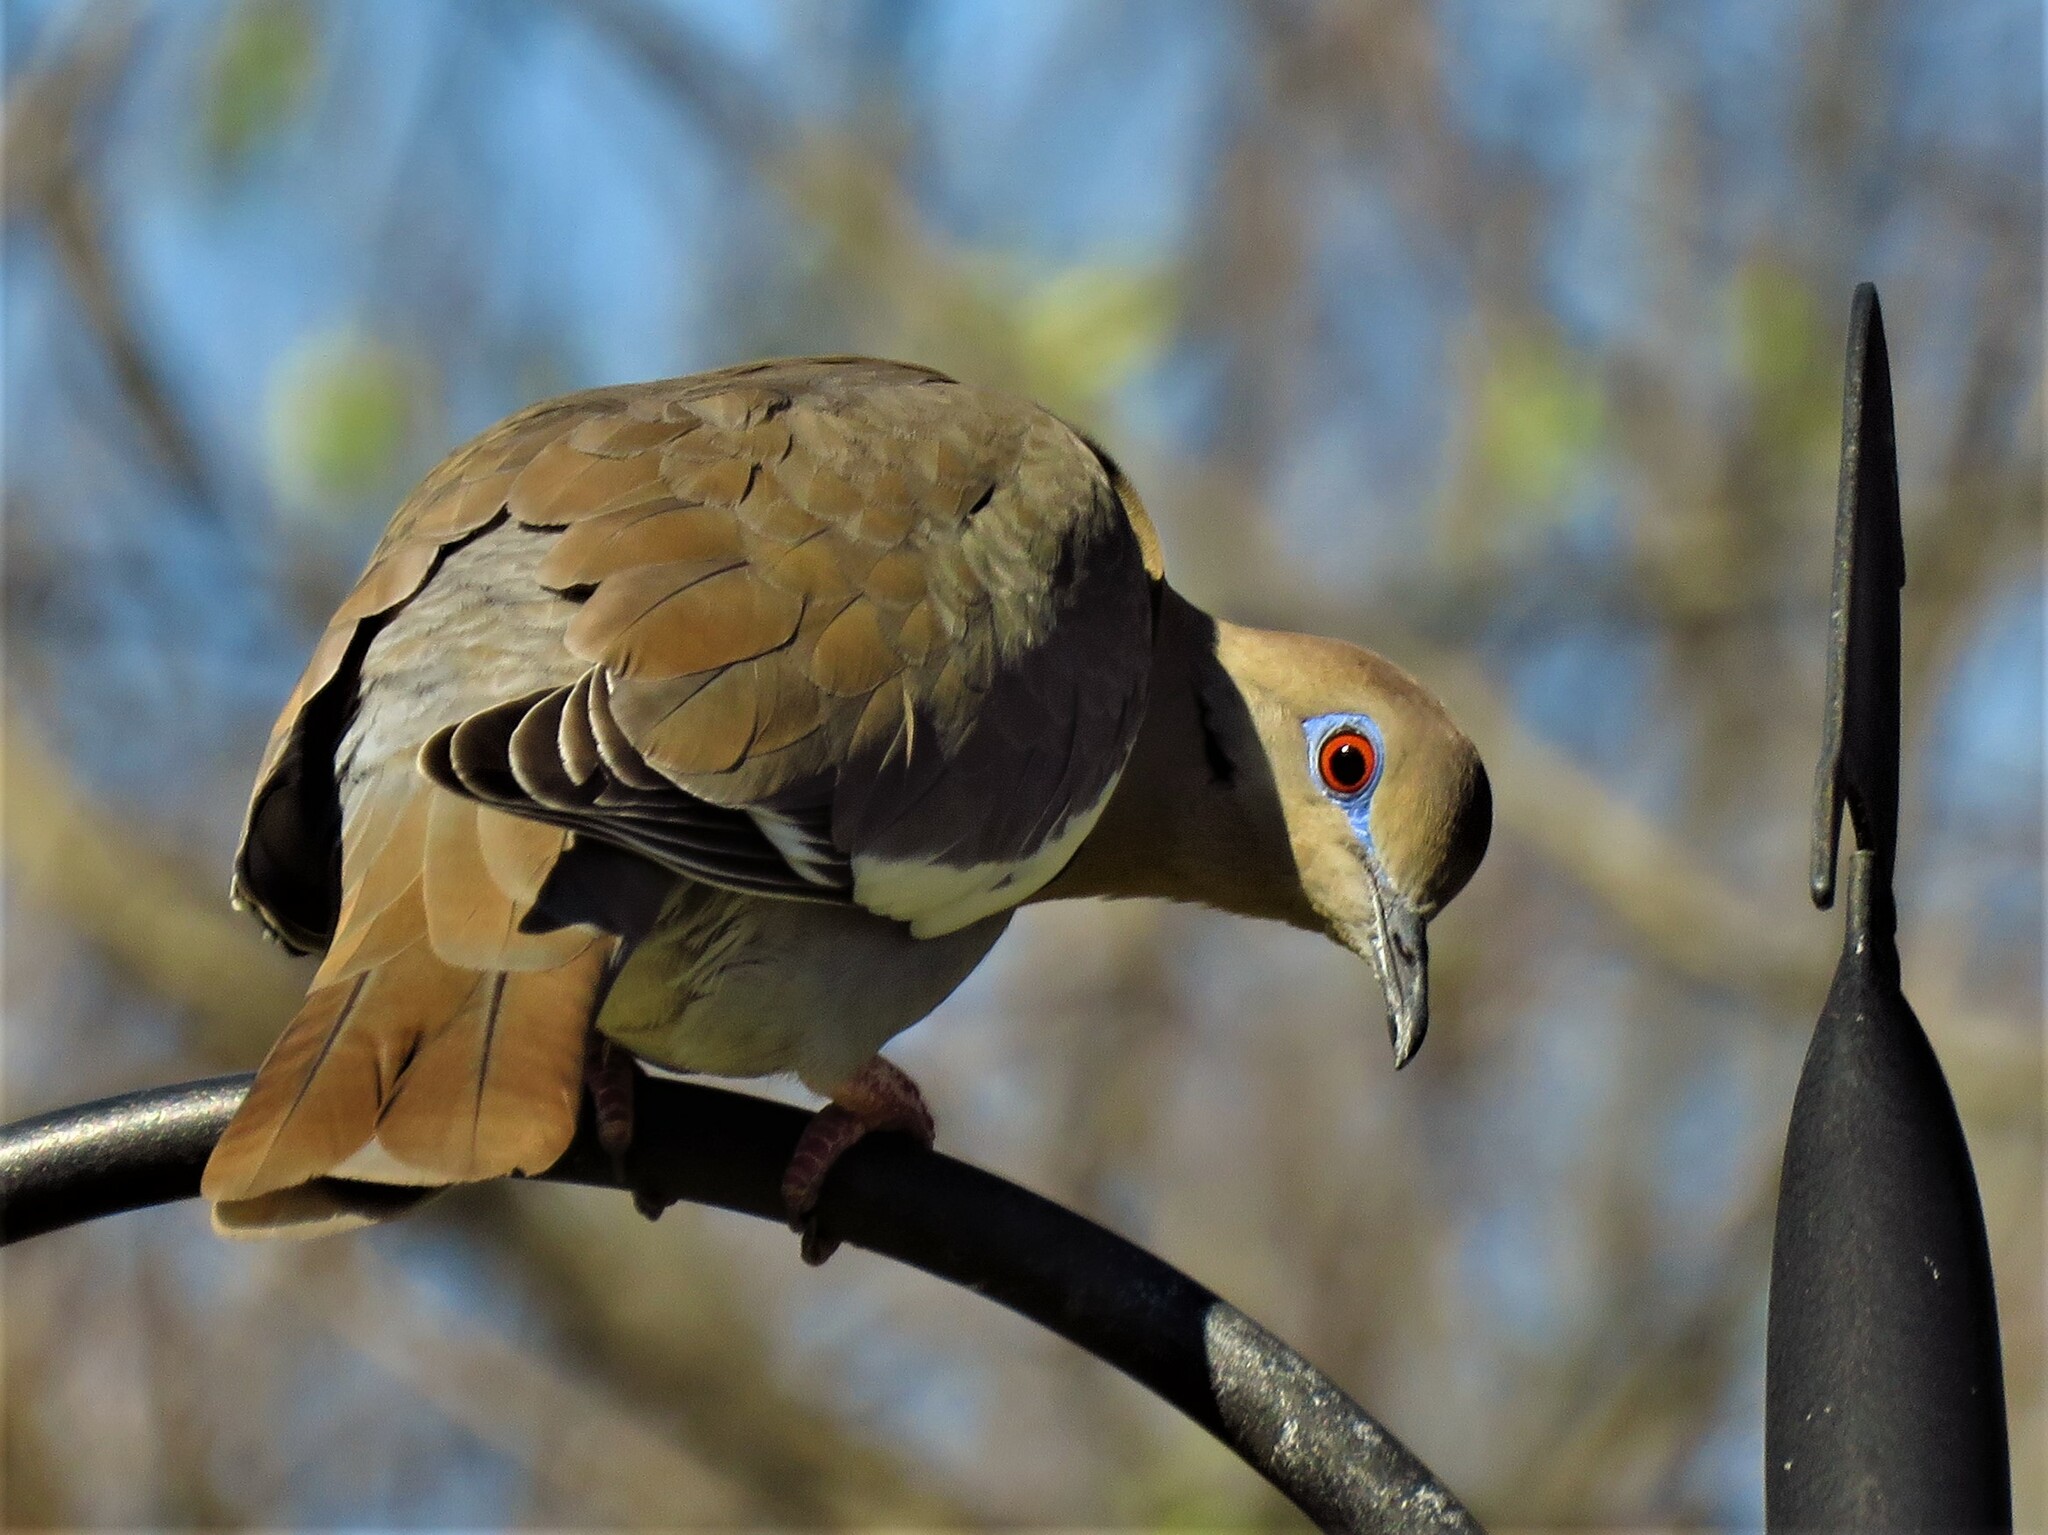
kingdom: Animalia
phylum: Chordata
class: Aves
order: Columbiformes
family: Columbidae
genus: Zenaida
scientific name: Zenaida asiatica
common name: White-winged dove
